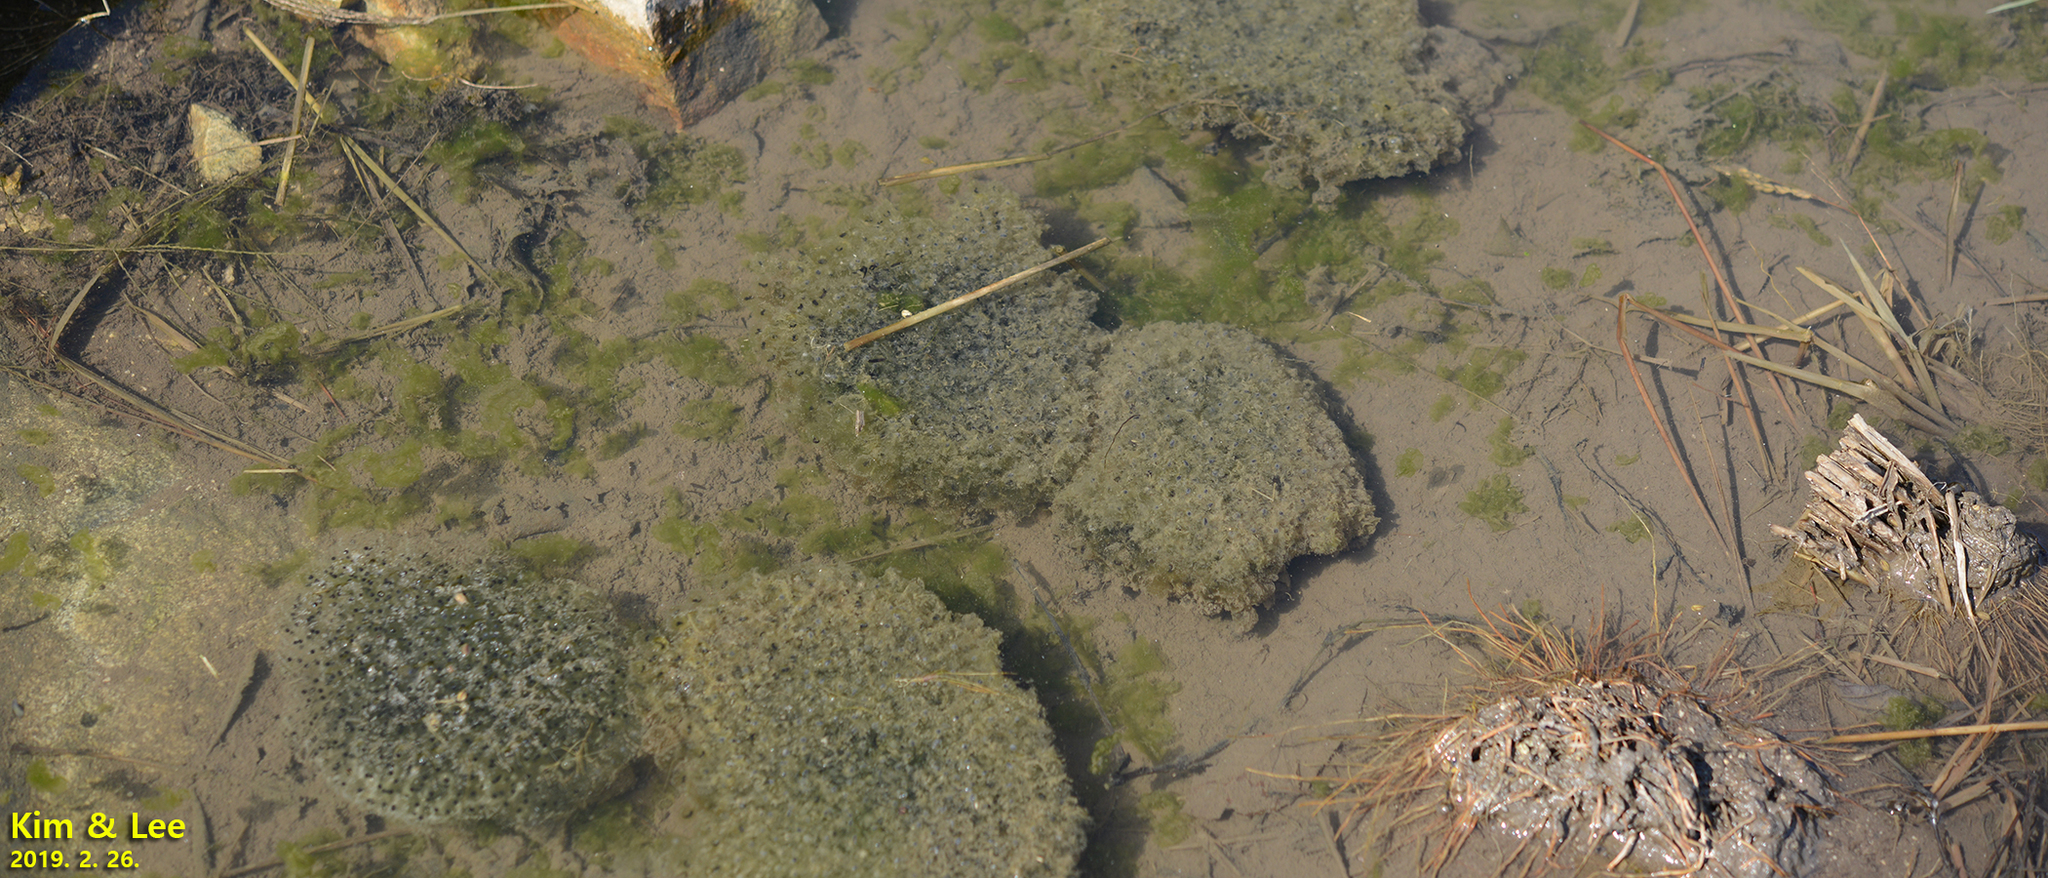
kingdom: Animalia
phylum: Chordata
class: Amphibia
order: Anura
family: Ranidae
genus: Rana
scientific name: Rana uenoi
